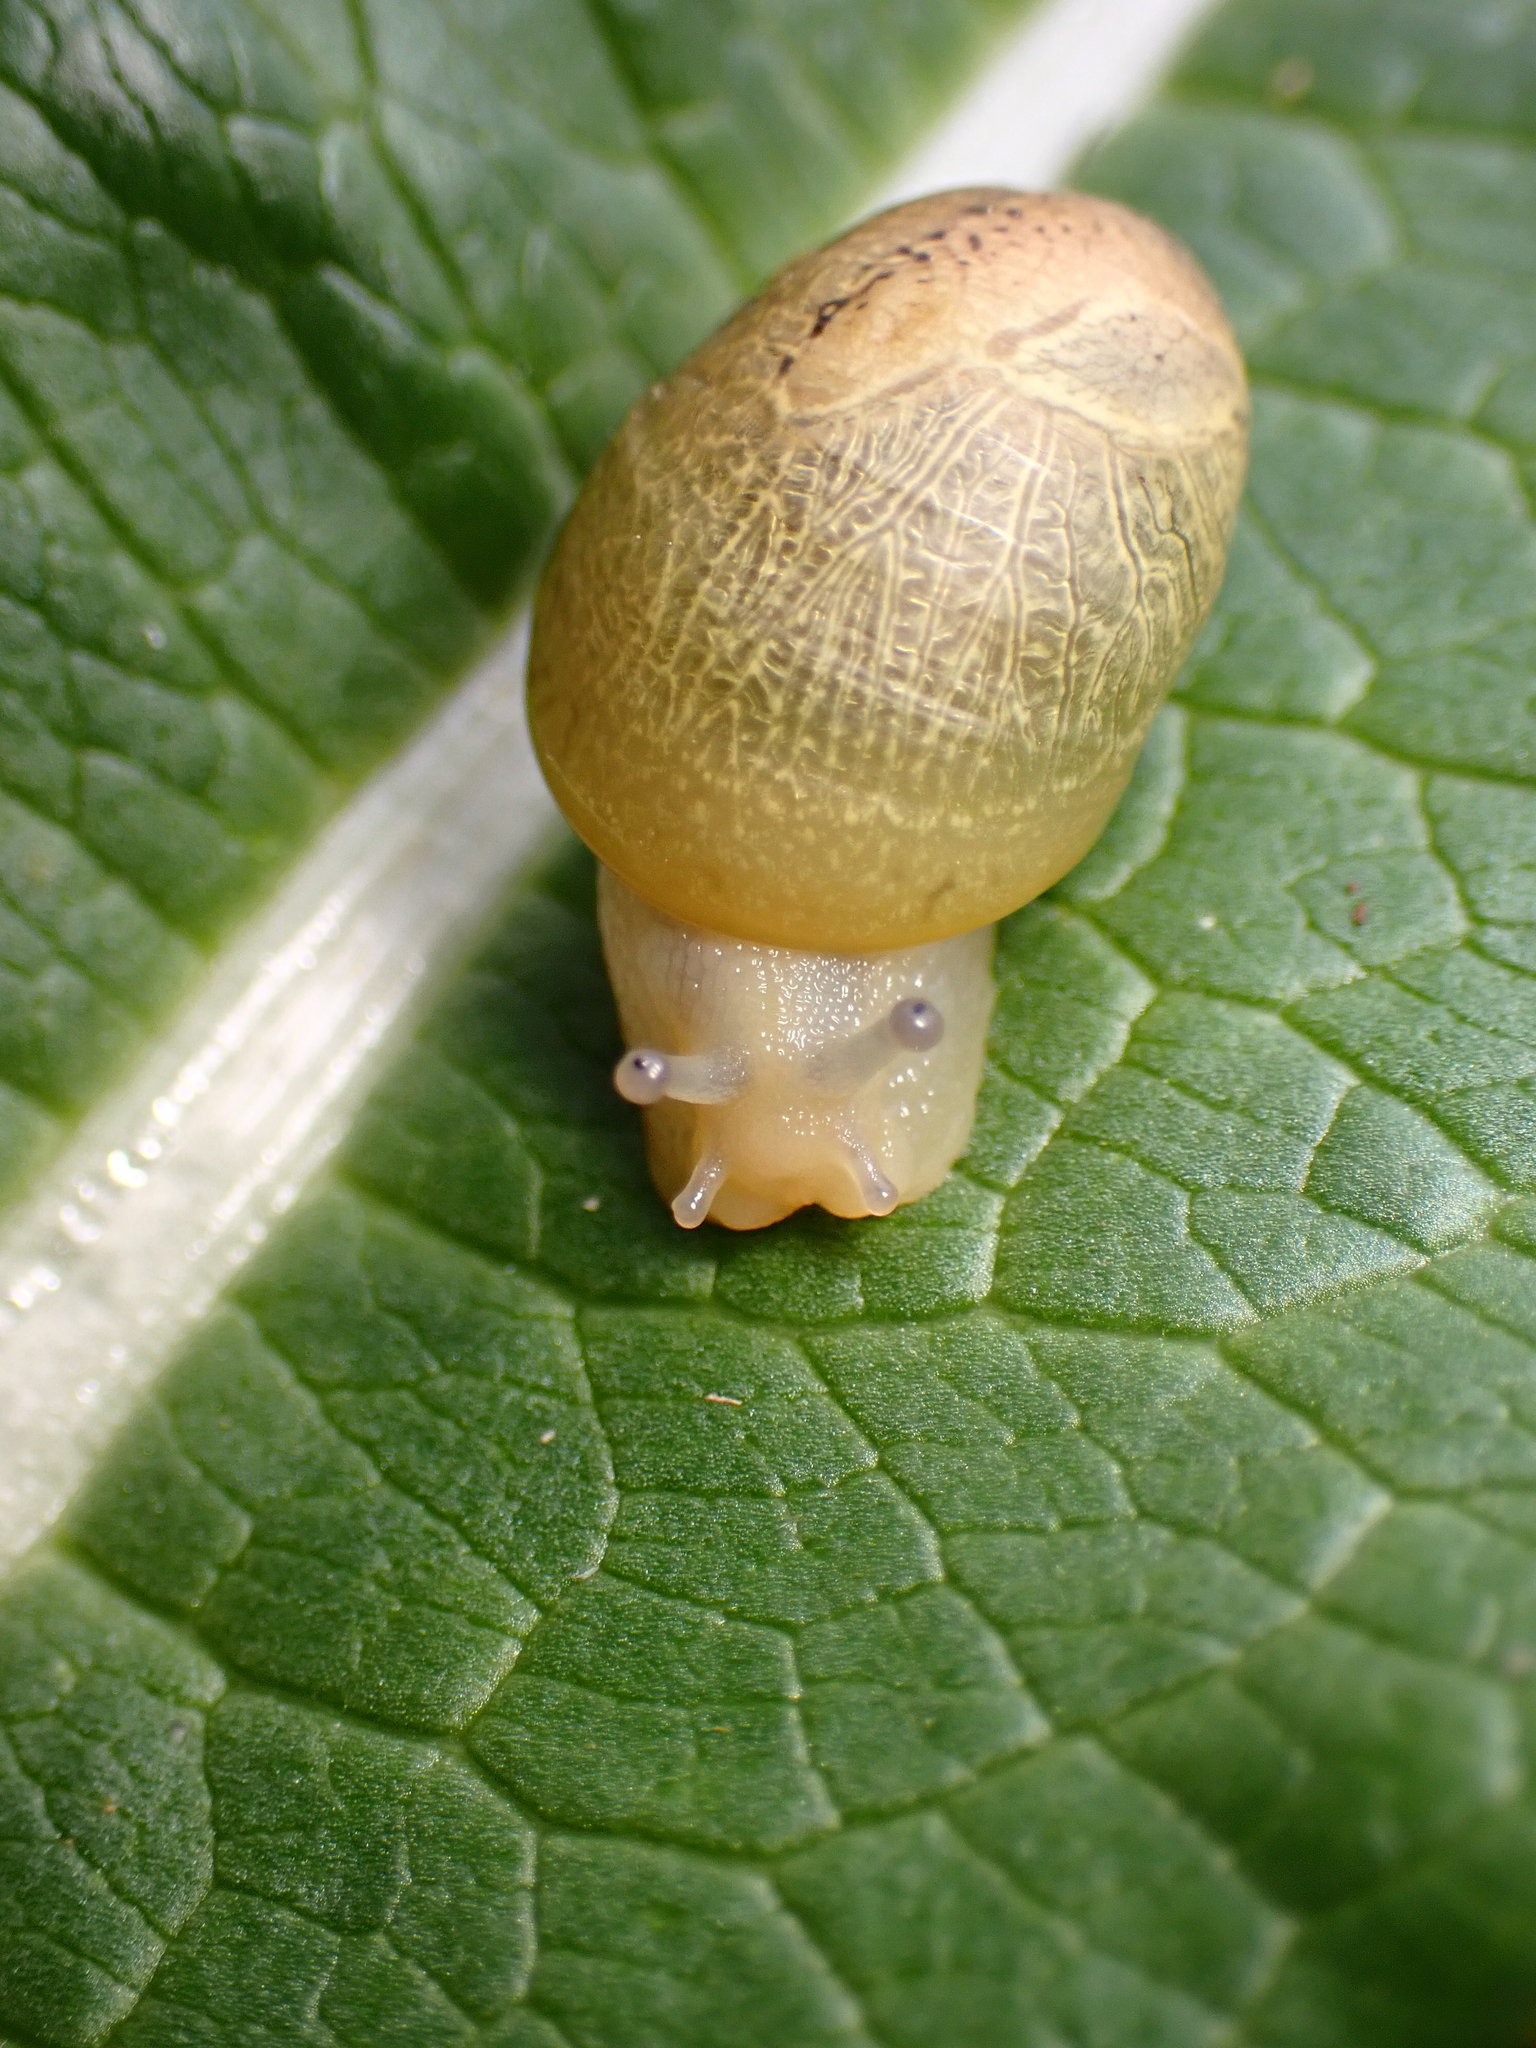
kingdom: Animalia
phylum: Mollusca
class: Gastropoda
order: Stylommatophora
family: Helicidae
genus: Cantareus
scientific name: Cantareus apertus
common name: Green gardensnail
